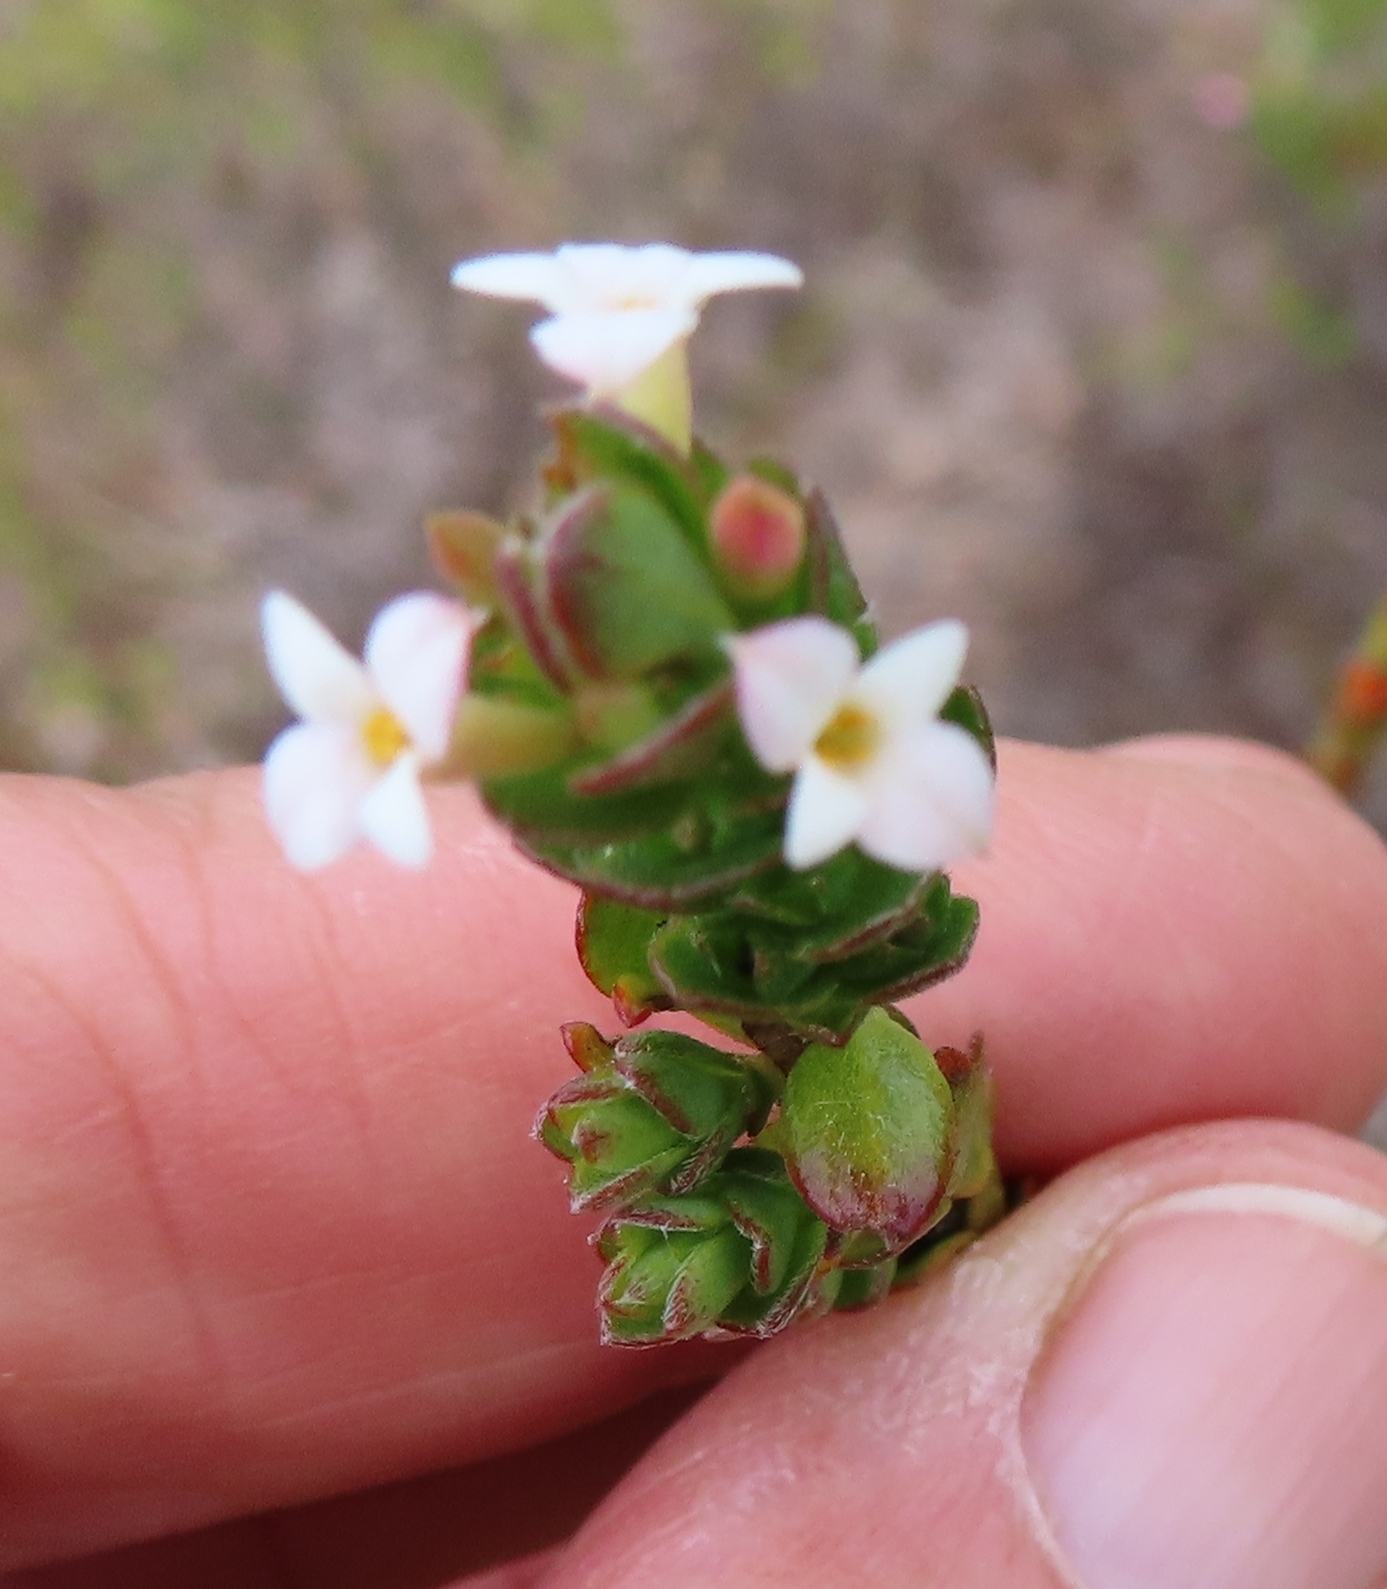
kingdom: Plantae
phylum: Tracheophyta
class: Magnoliopsida
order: Malvales
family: Thymelaeaceae
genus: Gnidia
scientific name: Gnidia spicata
